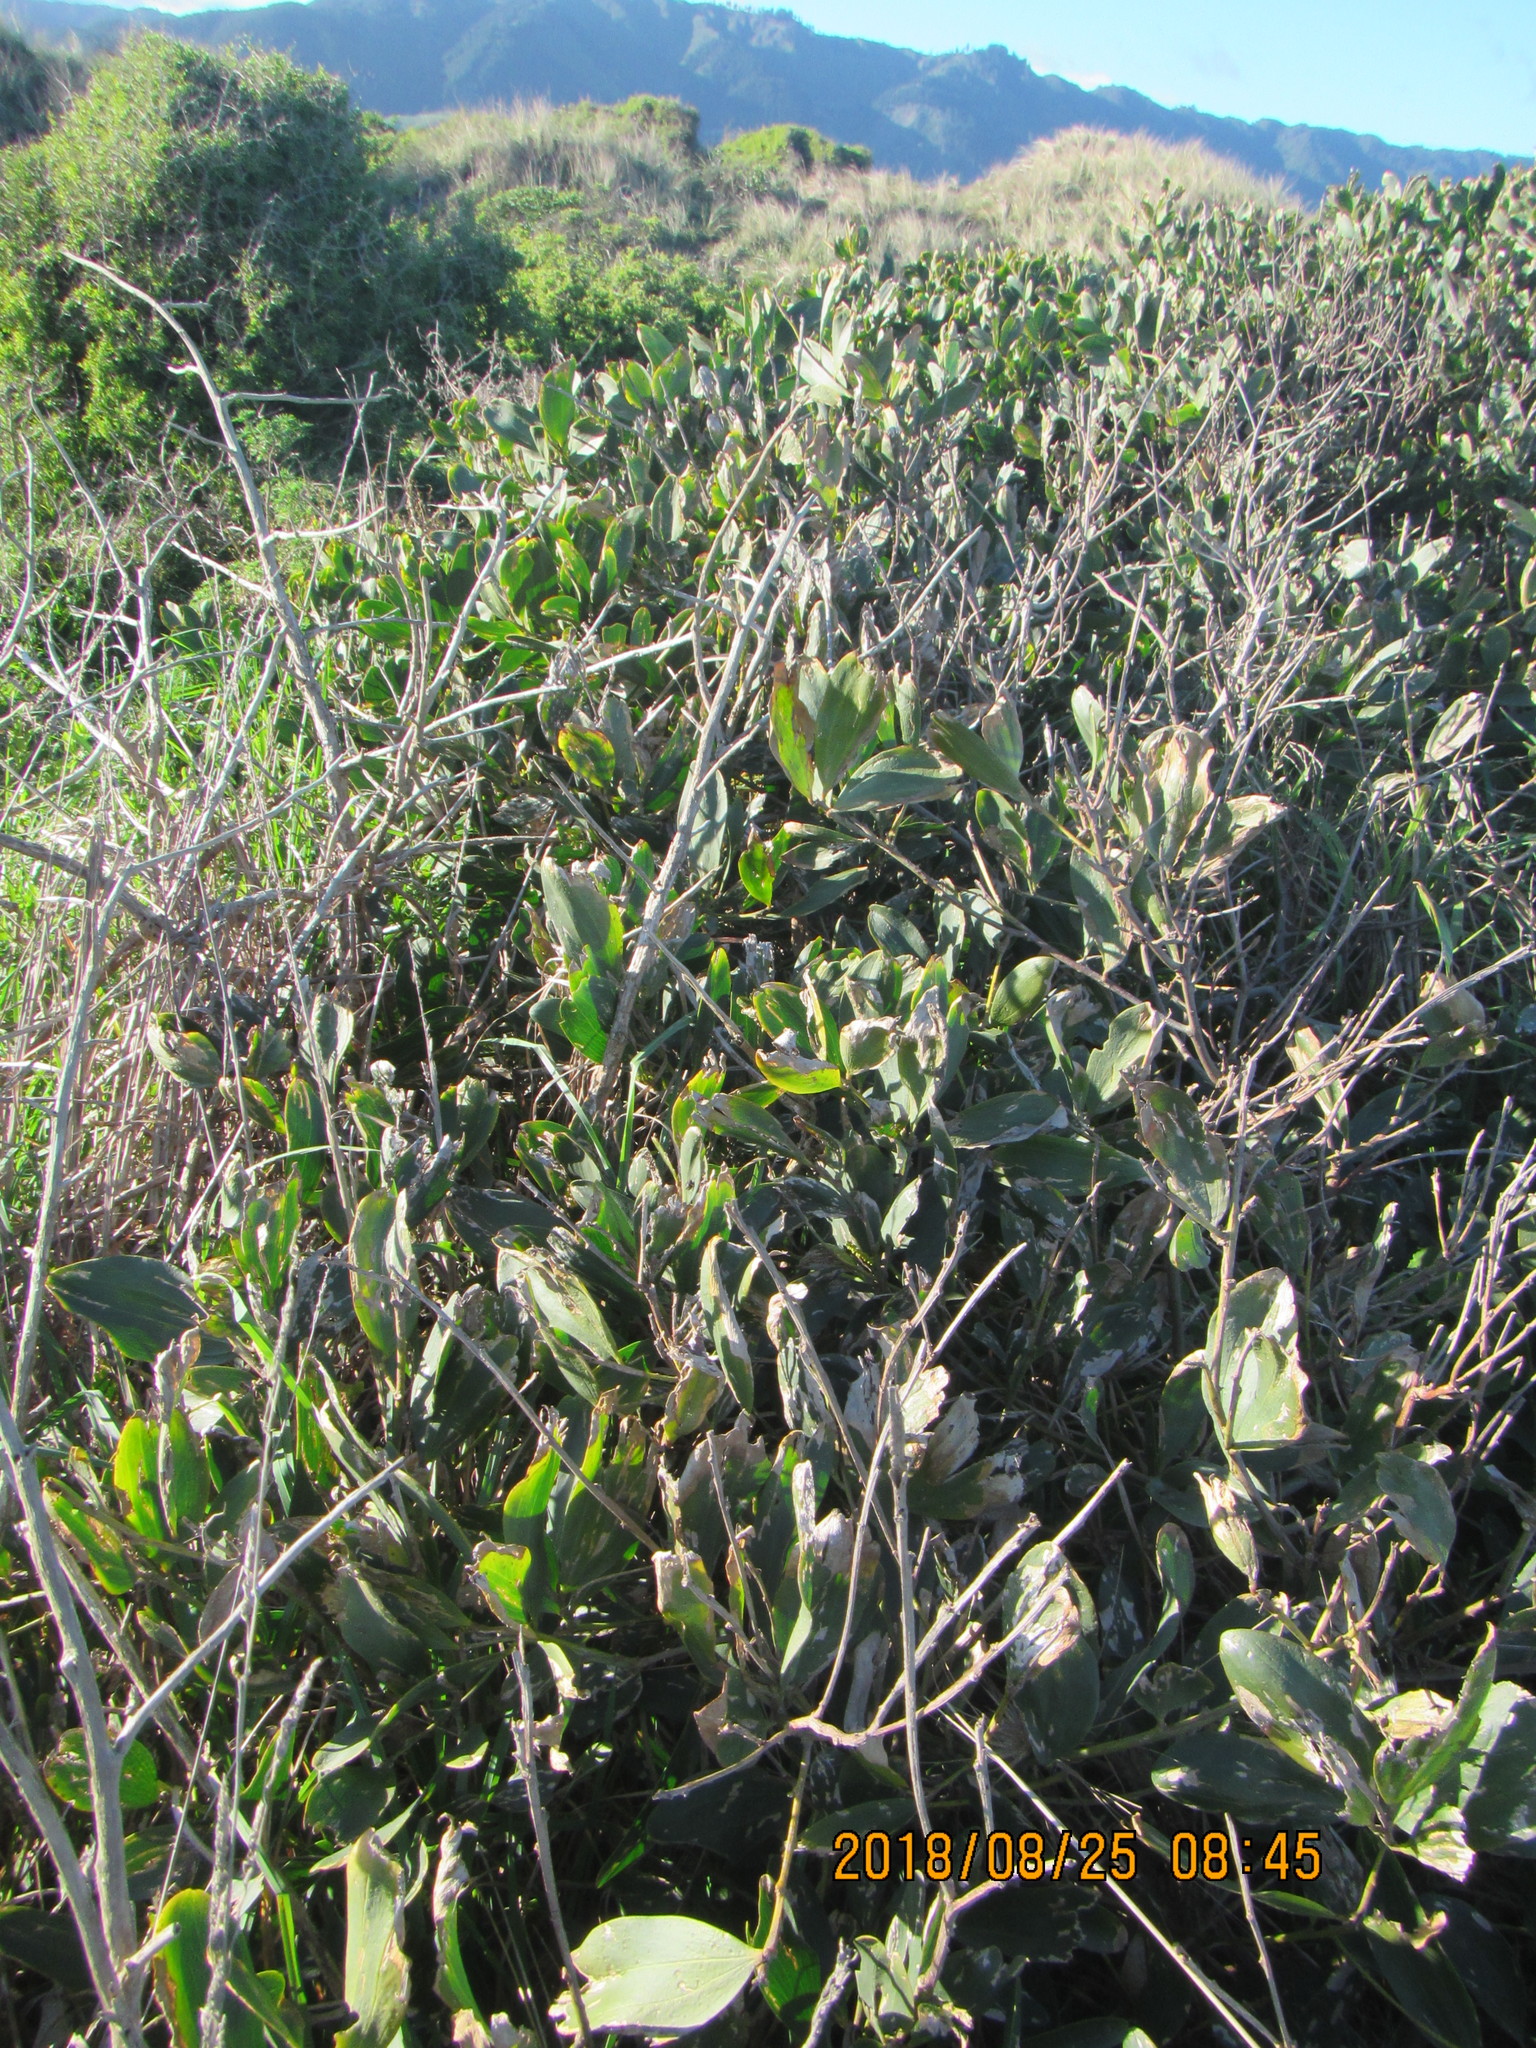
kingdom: Plantae
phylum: Tracheophyta
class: Magnoliopsida
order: Fabales
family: Fabaceae
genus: Acacia
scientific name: Acacia longifolia
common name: Sydney golden wattle
